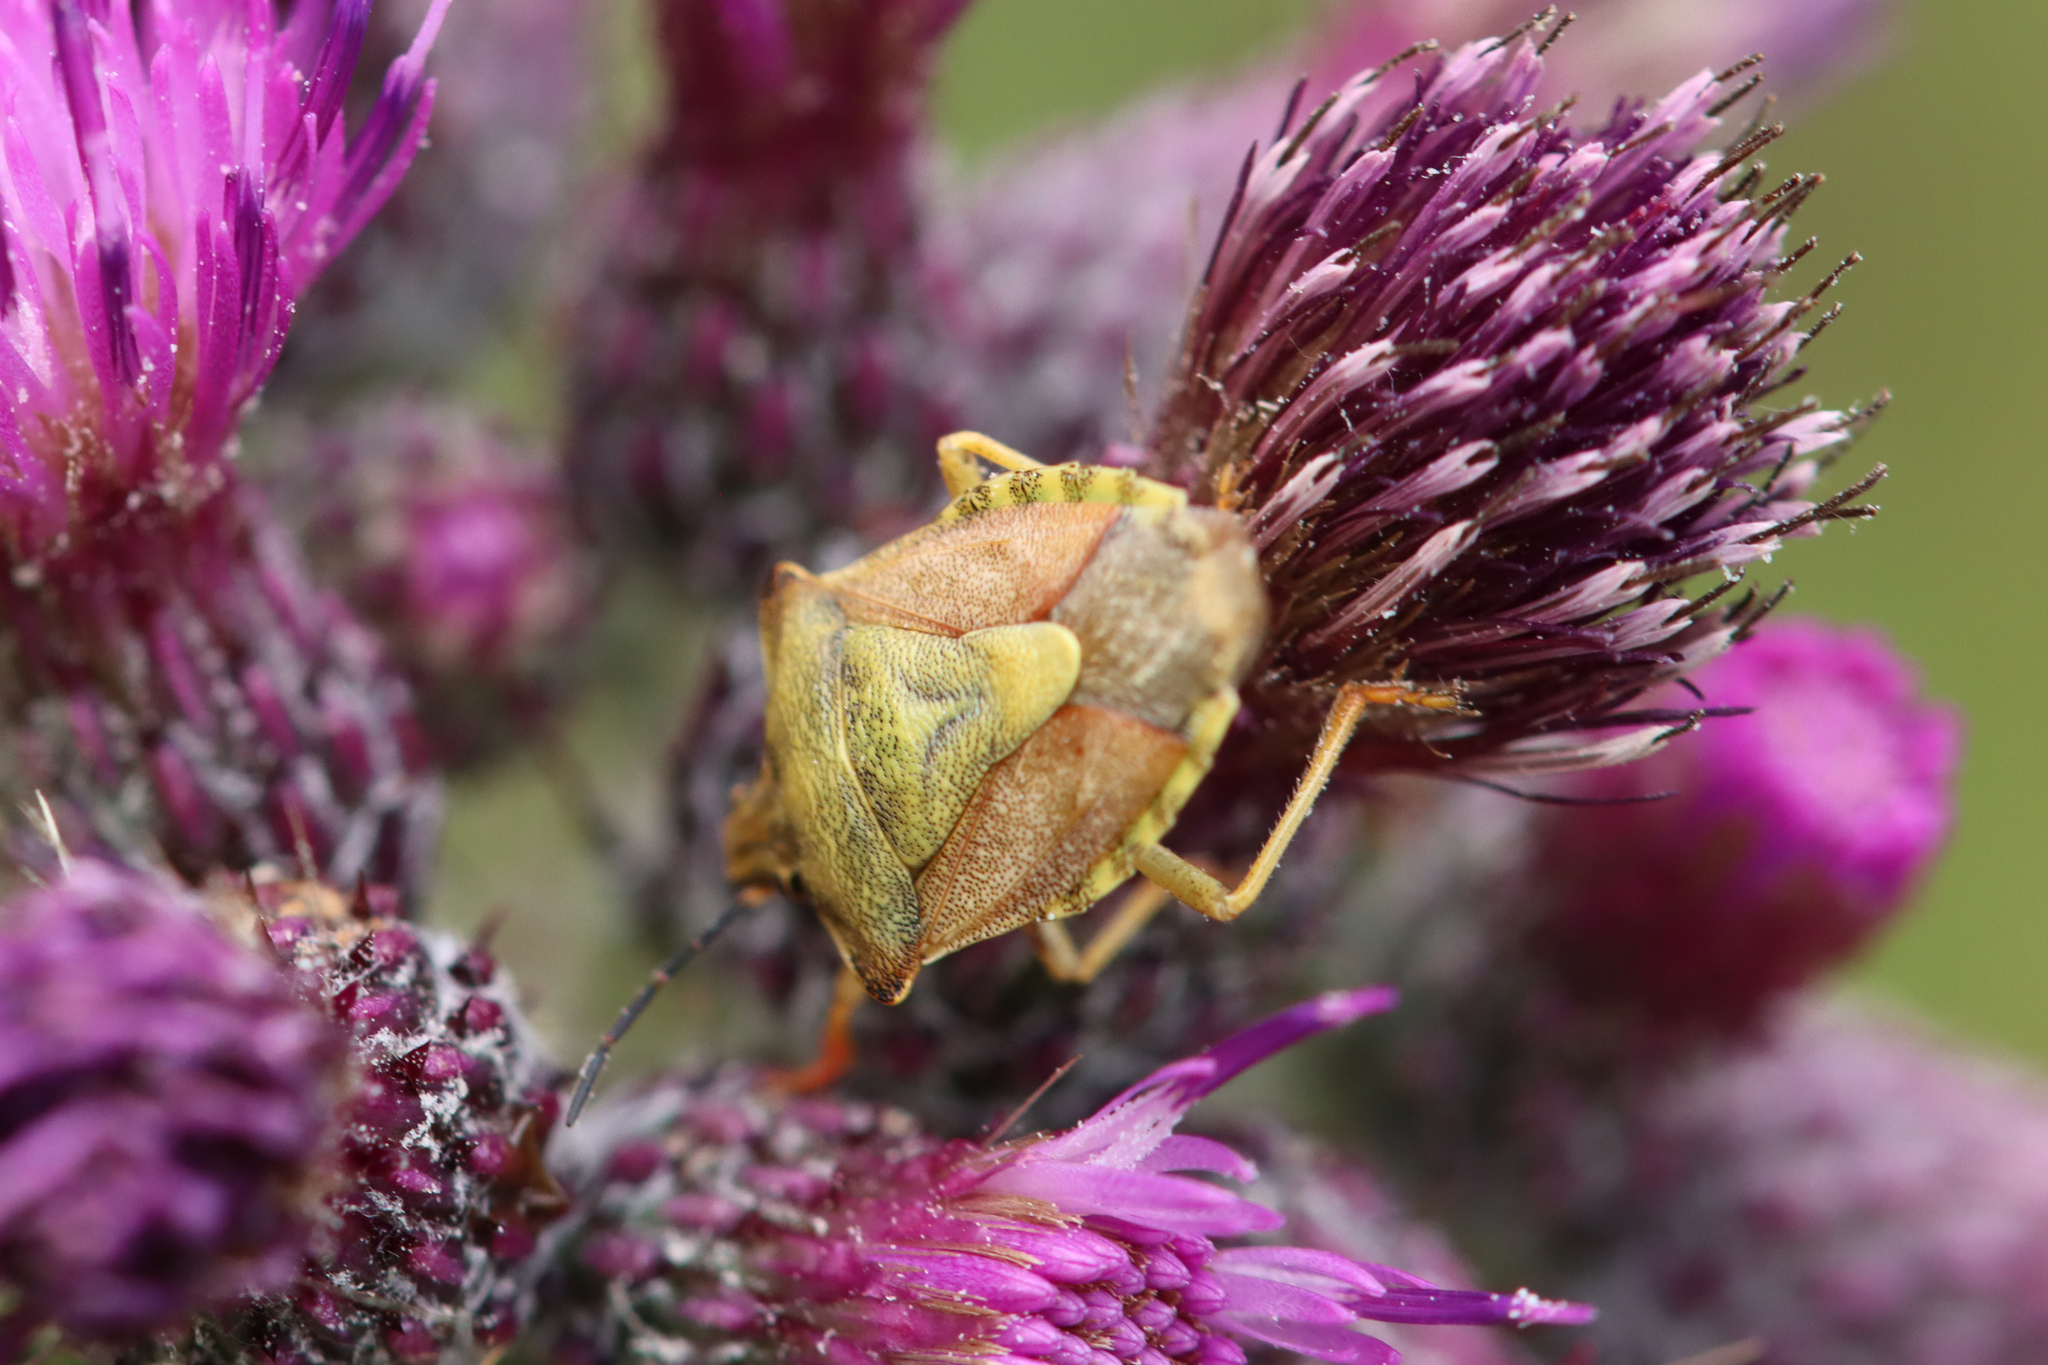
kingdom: Animalia
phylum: Arthropoda
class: Insecta
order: Hemiptera
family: Pentatomidae
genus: Carpocoris
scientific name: Carpocoris purpureipennis
